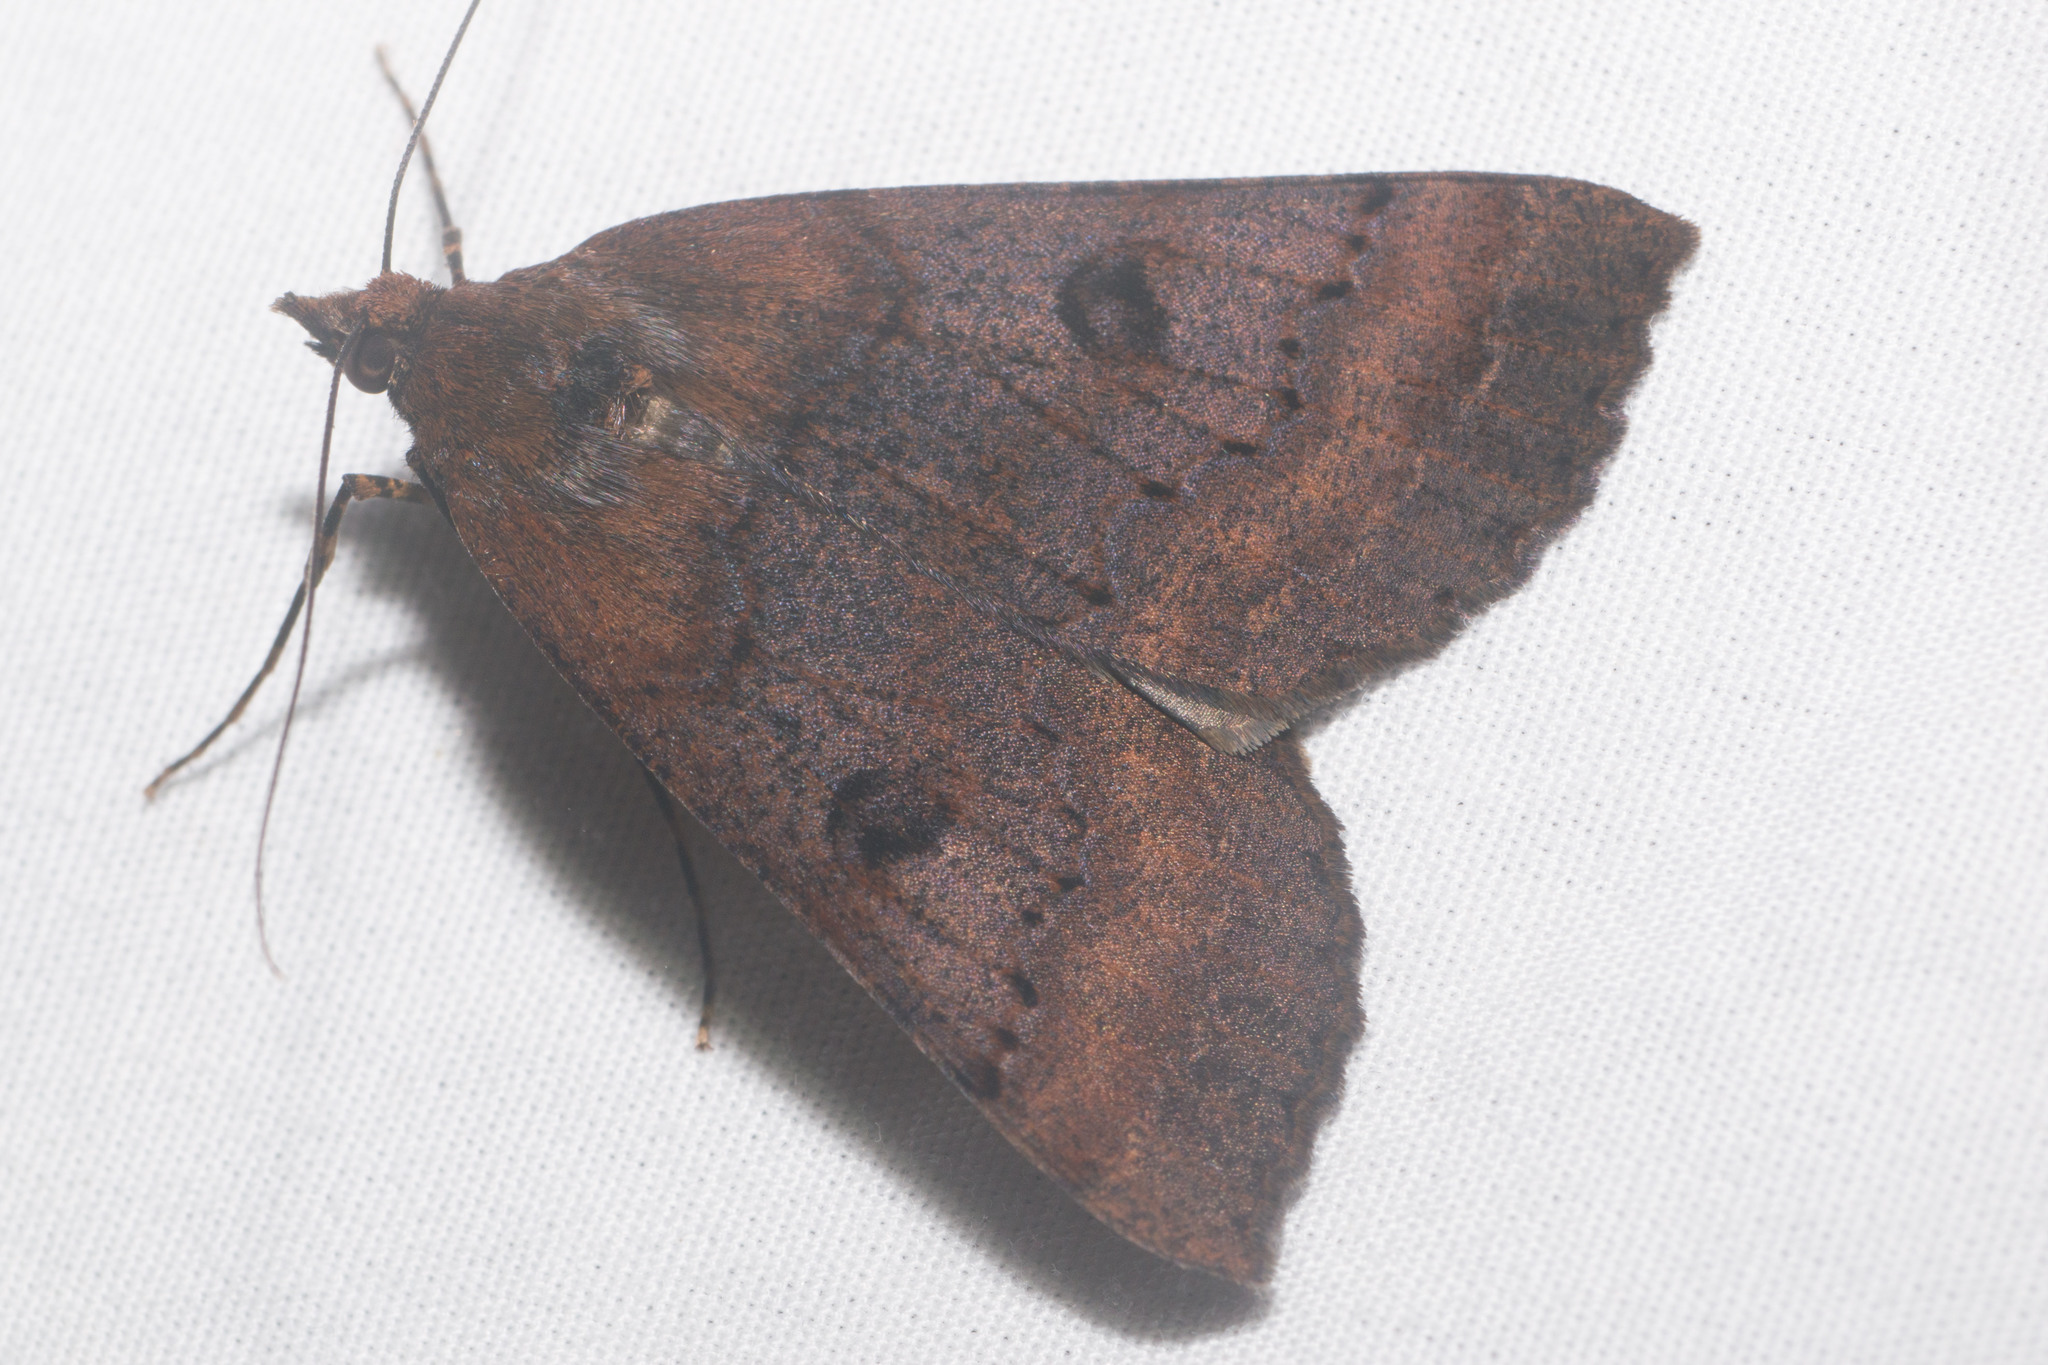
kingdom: Animalia
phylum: Arthropoda
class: Insecta
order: Lepidoptera
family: Geometridae
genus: Scotorythra
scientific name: Scotorythra rara
